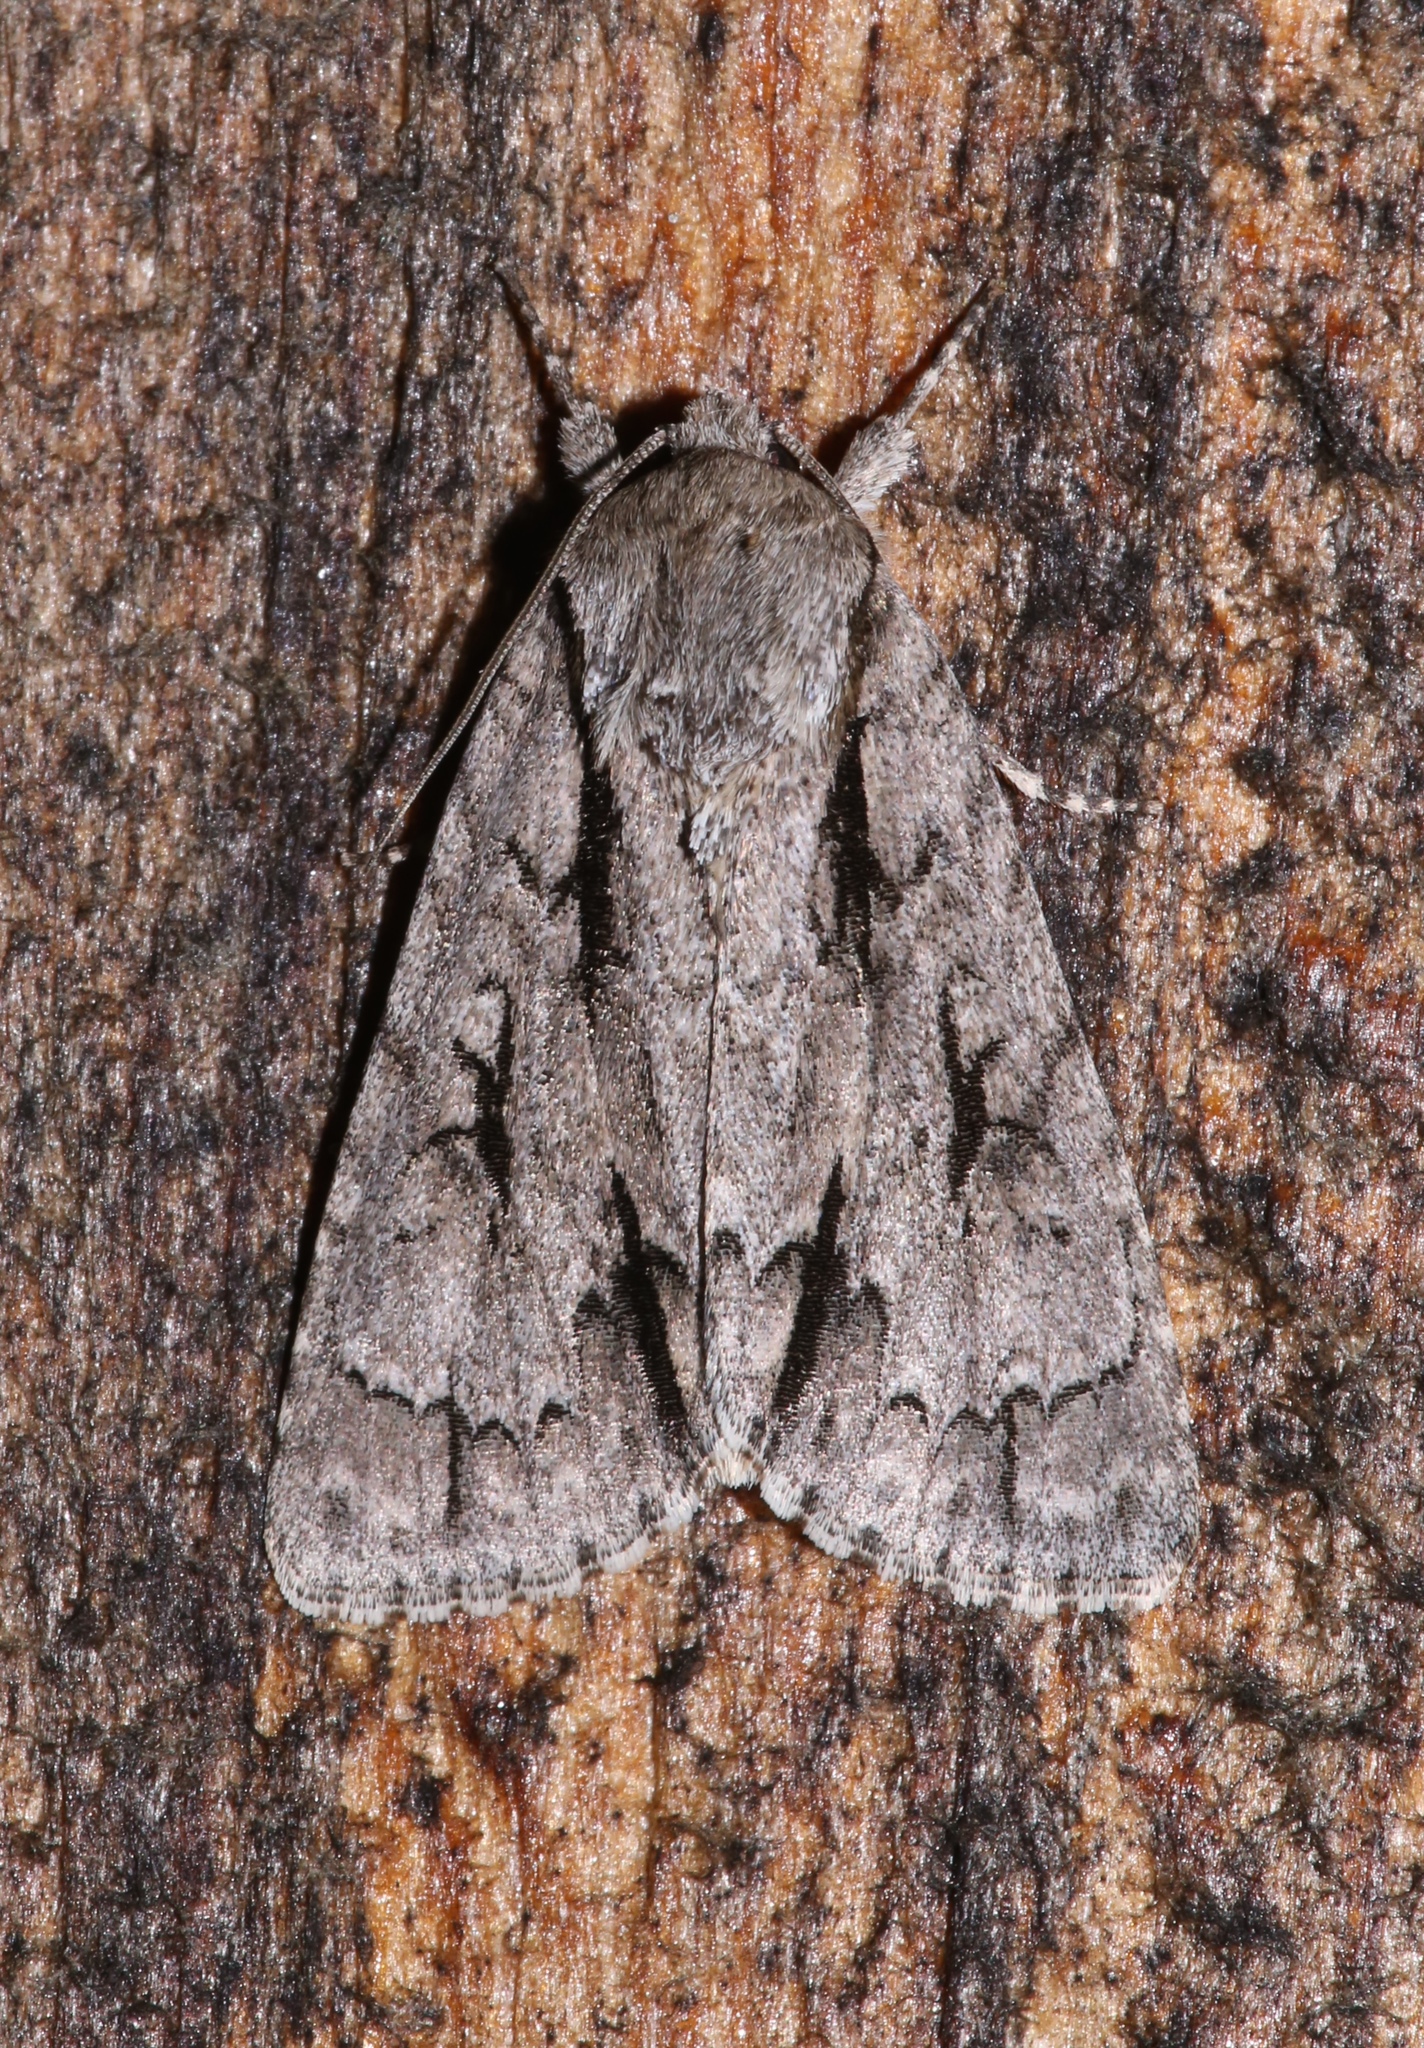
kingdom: Animalia
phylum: Arthropoda
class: Insecta
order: Lepidoptera
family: Noctuidae
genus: Acronicta
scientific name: Acronicta hasta
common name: Cherry dagger
